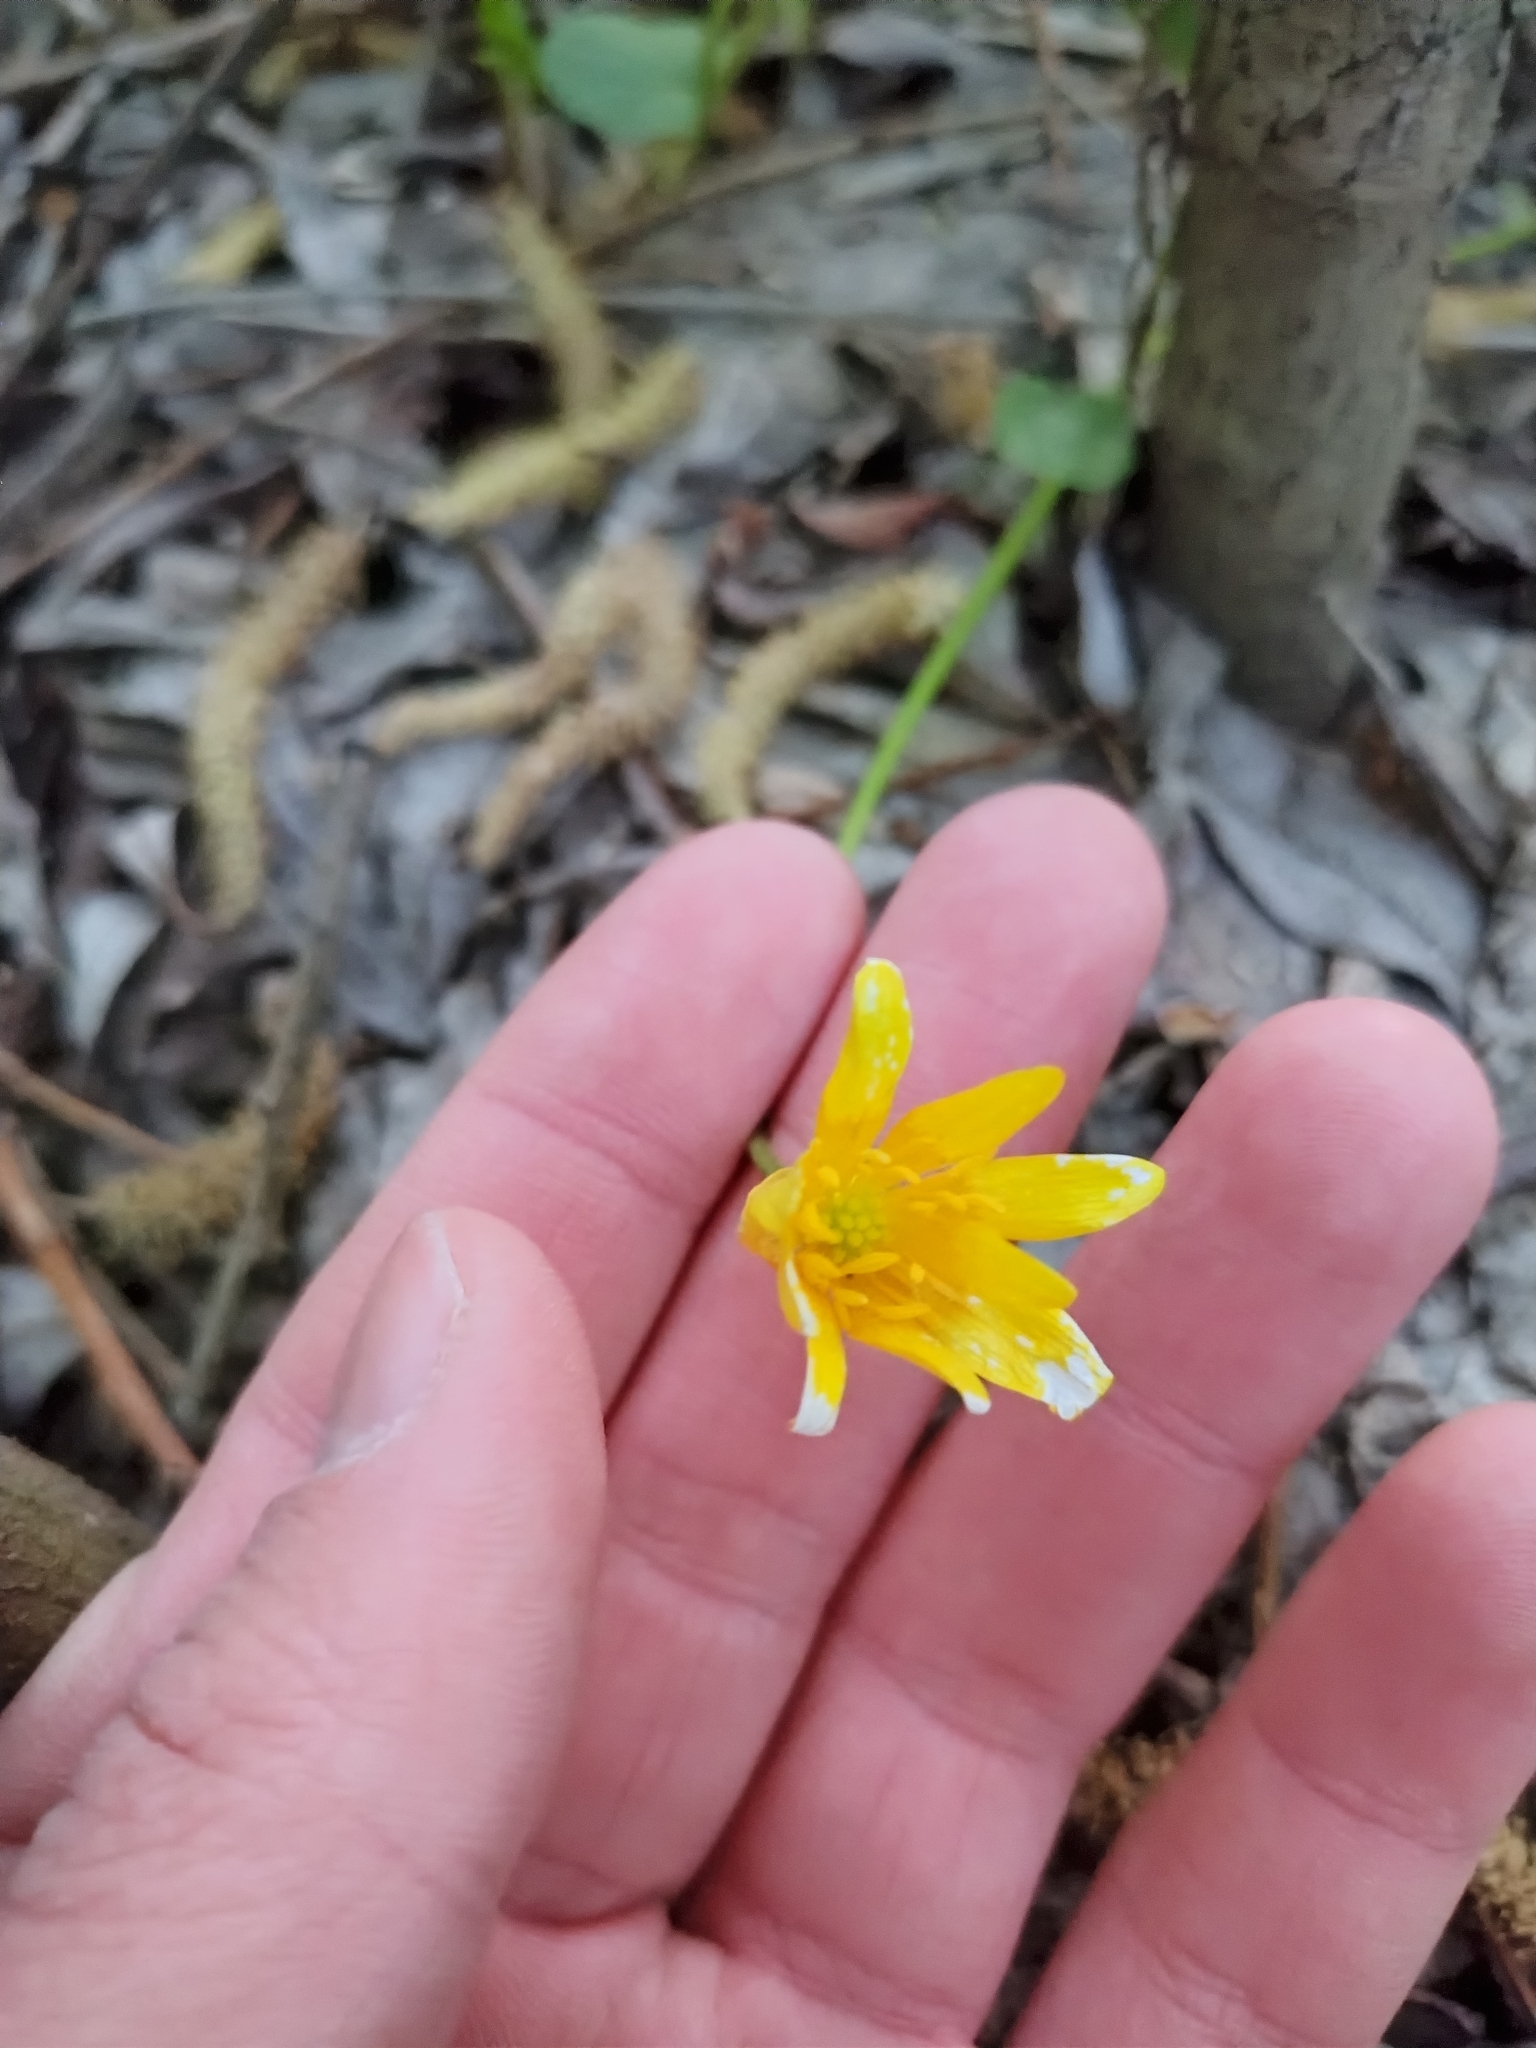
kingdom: Plantae
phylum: Tracheophyta
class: Magnoliopsida
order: Ranunculales
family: Ranunculaceae
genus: Ficaria
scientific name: Ficaria verna
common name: Lesser celandine
